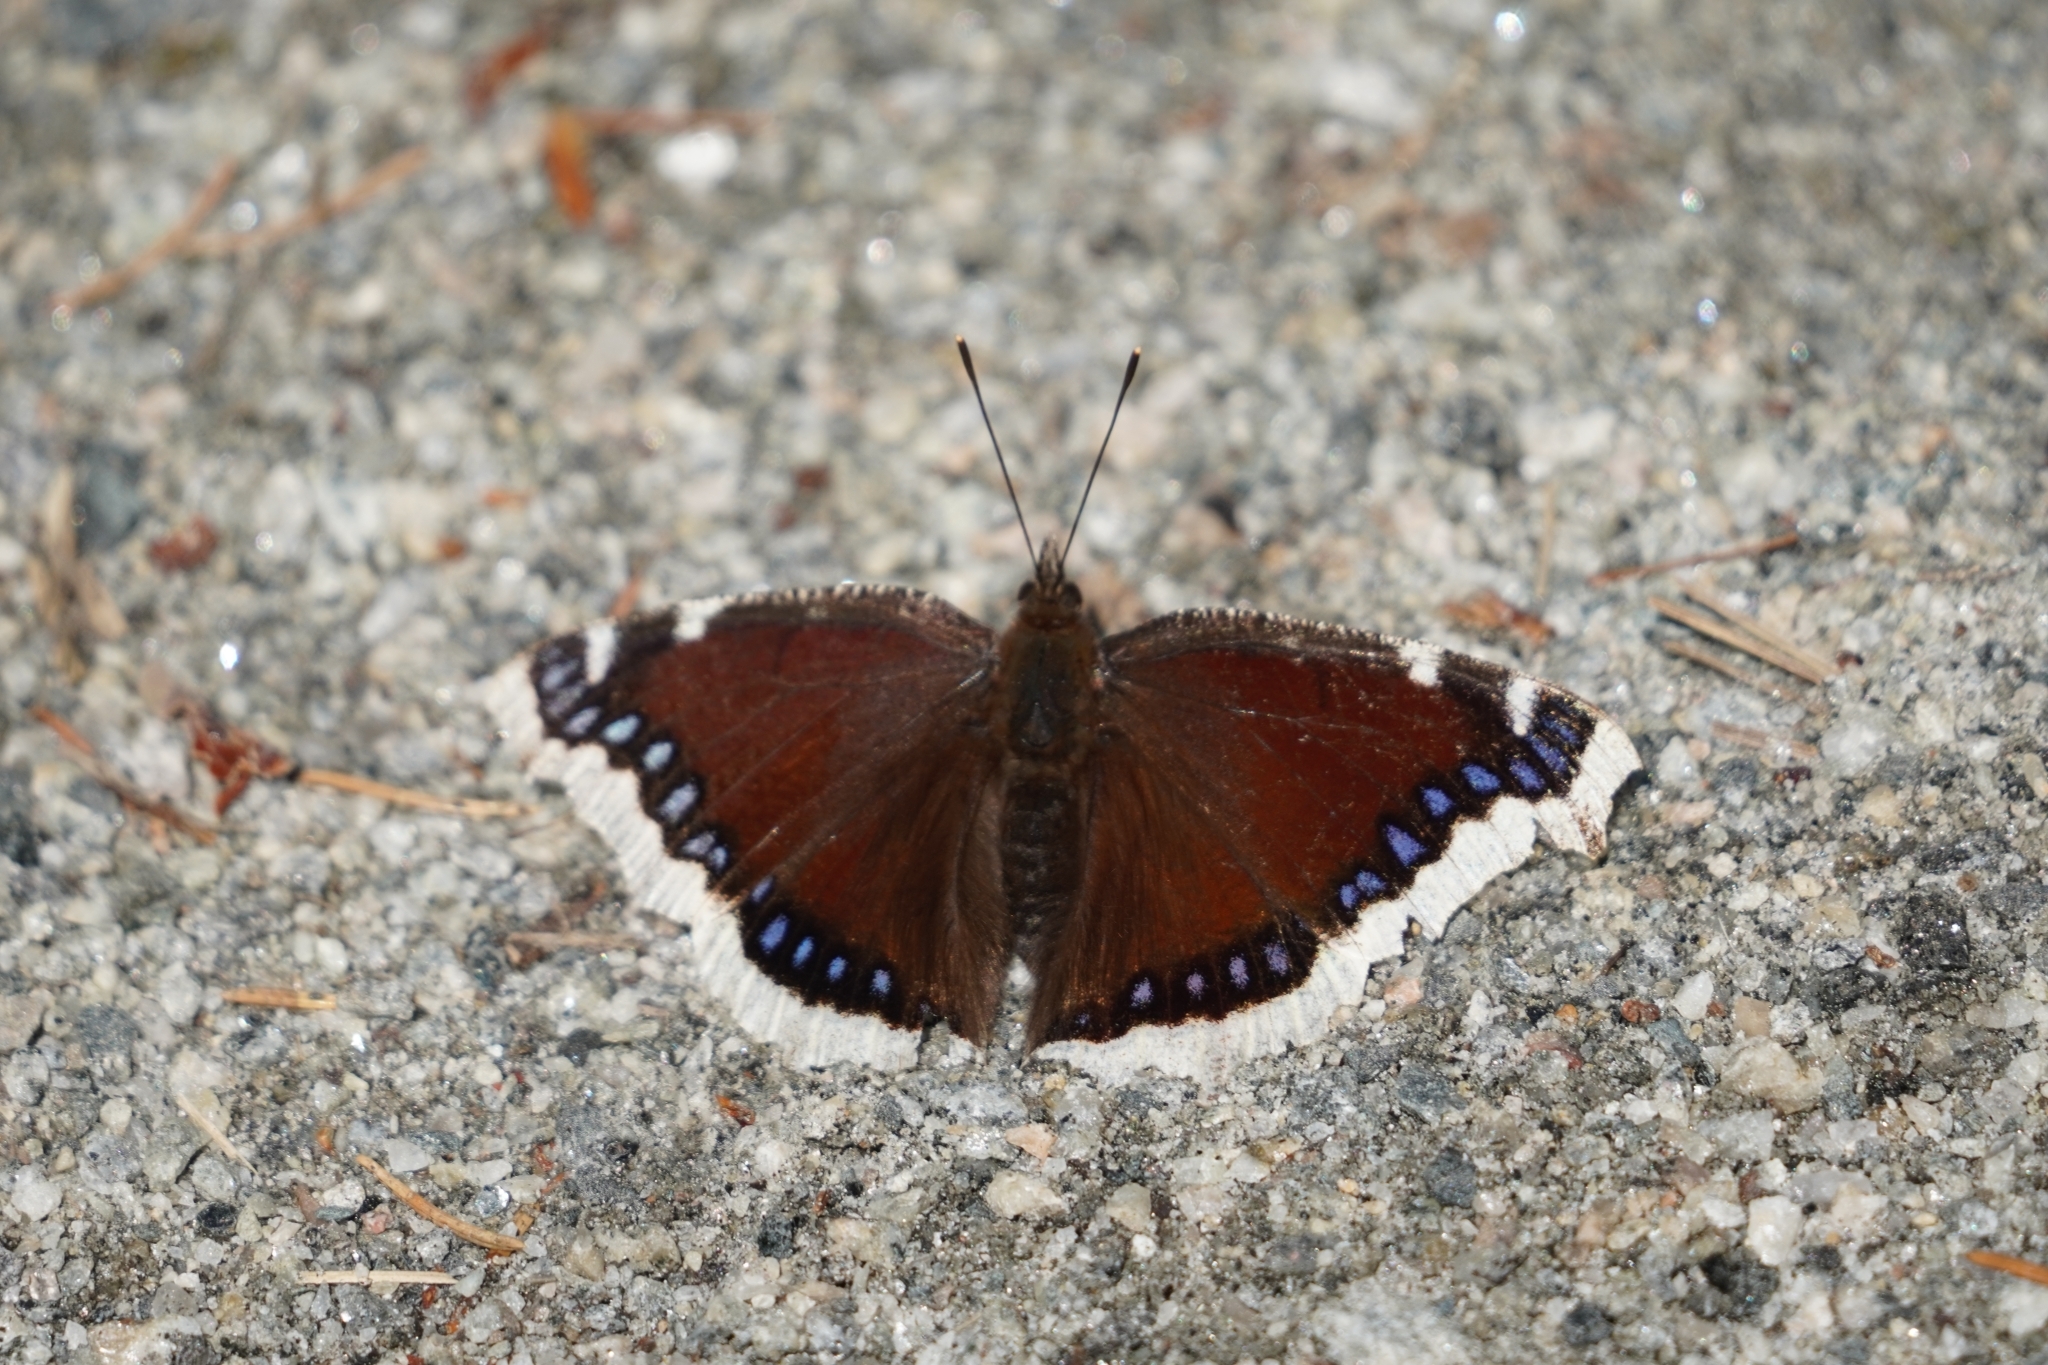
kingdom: Animalia
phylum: Arthropoda
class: Insecta
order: Lepidoptera
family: Nymphalidae
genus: Nymphalis
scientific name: Nymphalis antiopa
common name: Camberwell beauty
